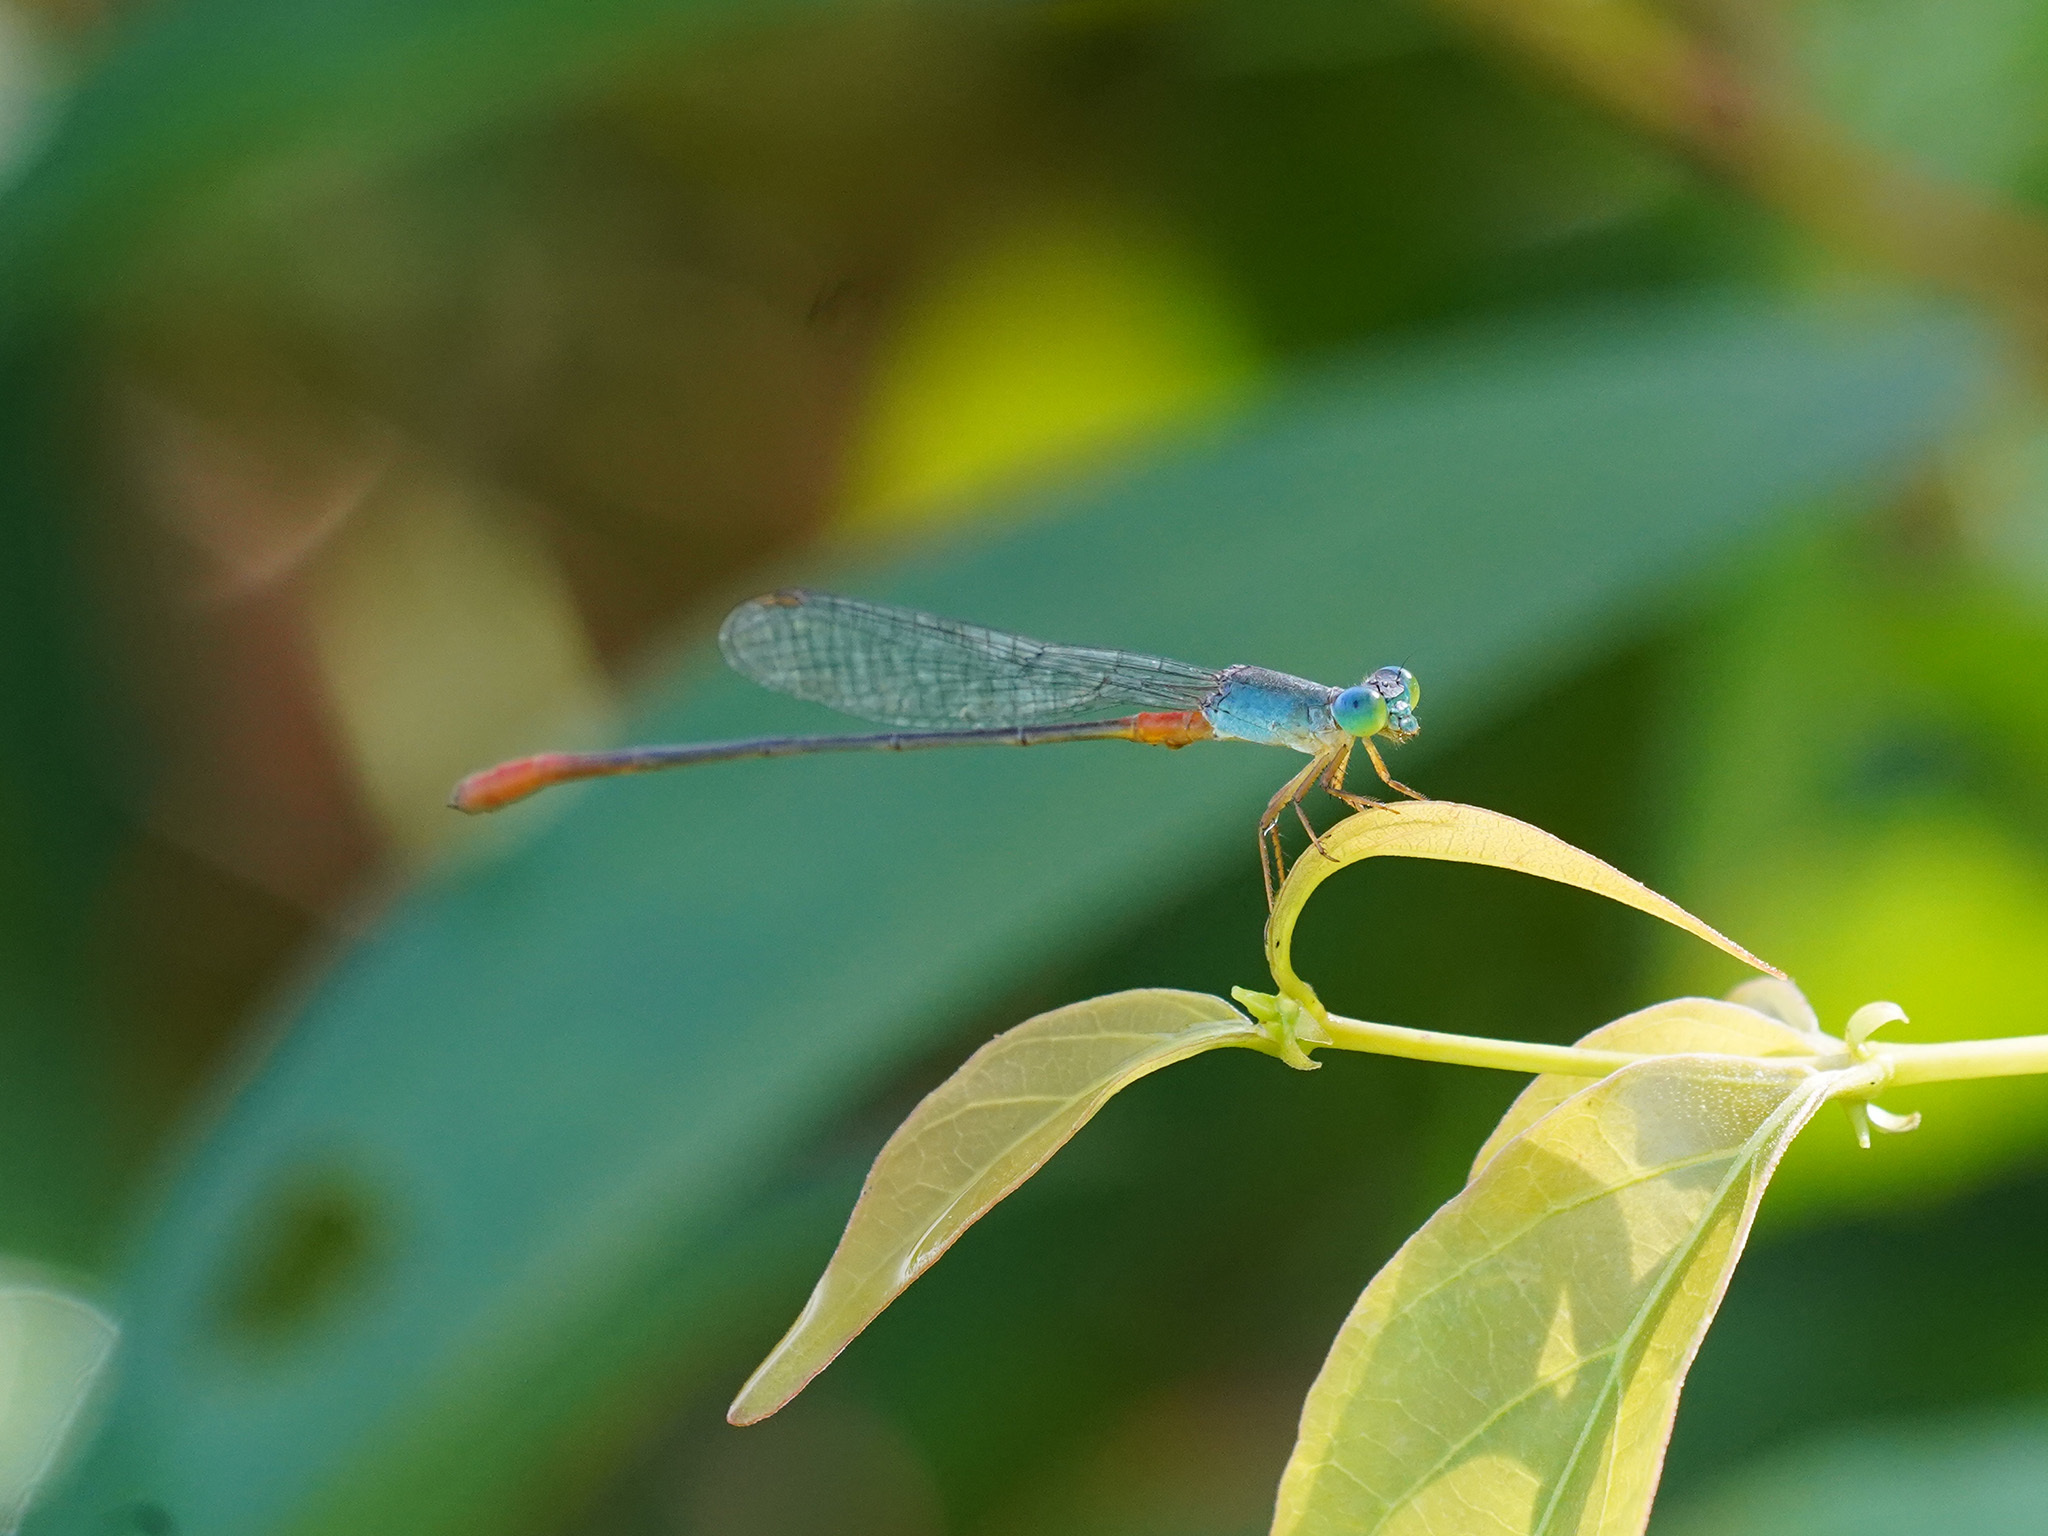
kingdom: Animalia
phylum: Arthropoda
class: Insecta
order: Odonata
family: Coenagrionidae
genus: Ceriagrion
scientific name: Ceriagrion cerinorubellum
